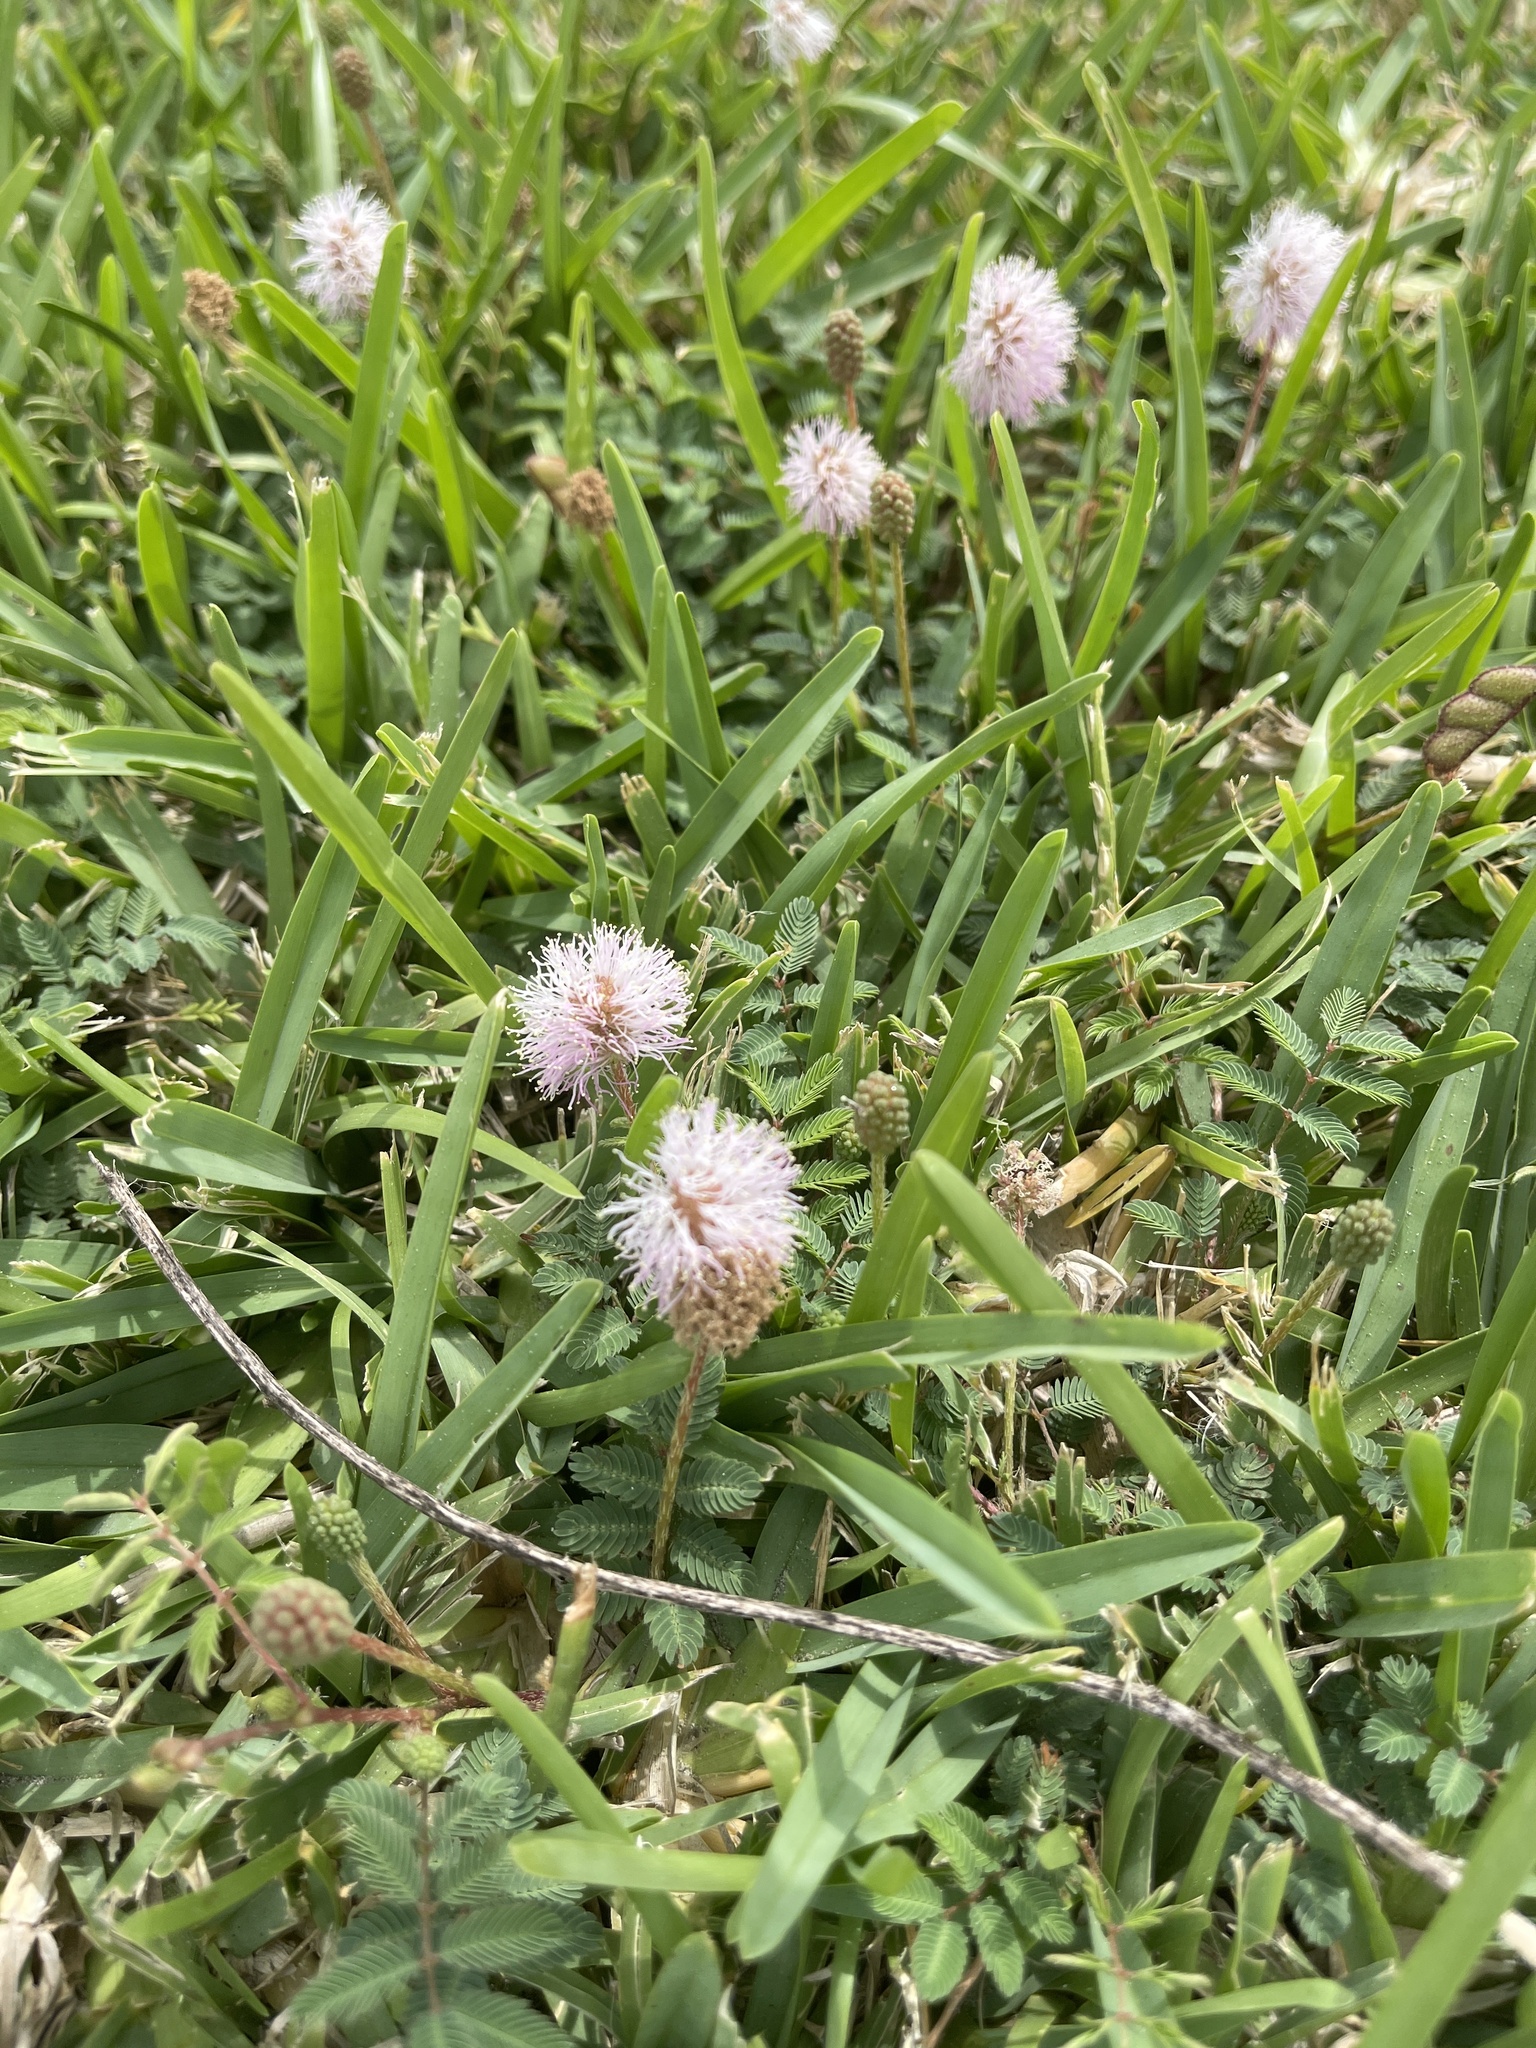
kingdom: Plantae
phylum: Tracheophyta
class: Magnoliopsida
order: Fabales
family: Fabaceae
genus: Mimosa
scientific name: Mimosa strigillosa
